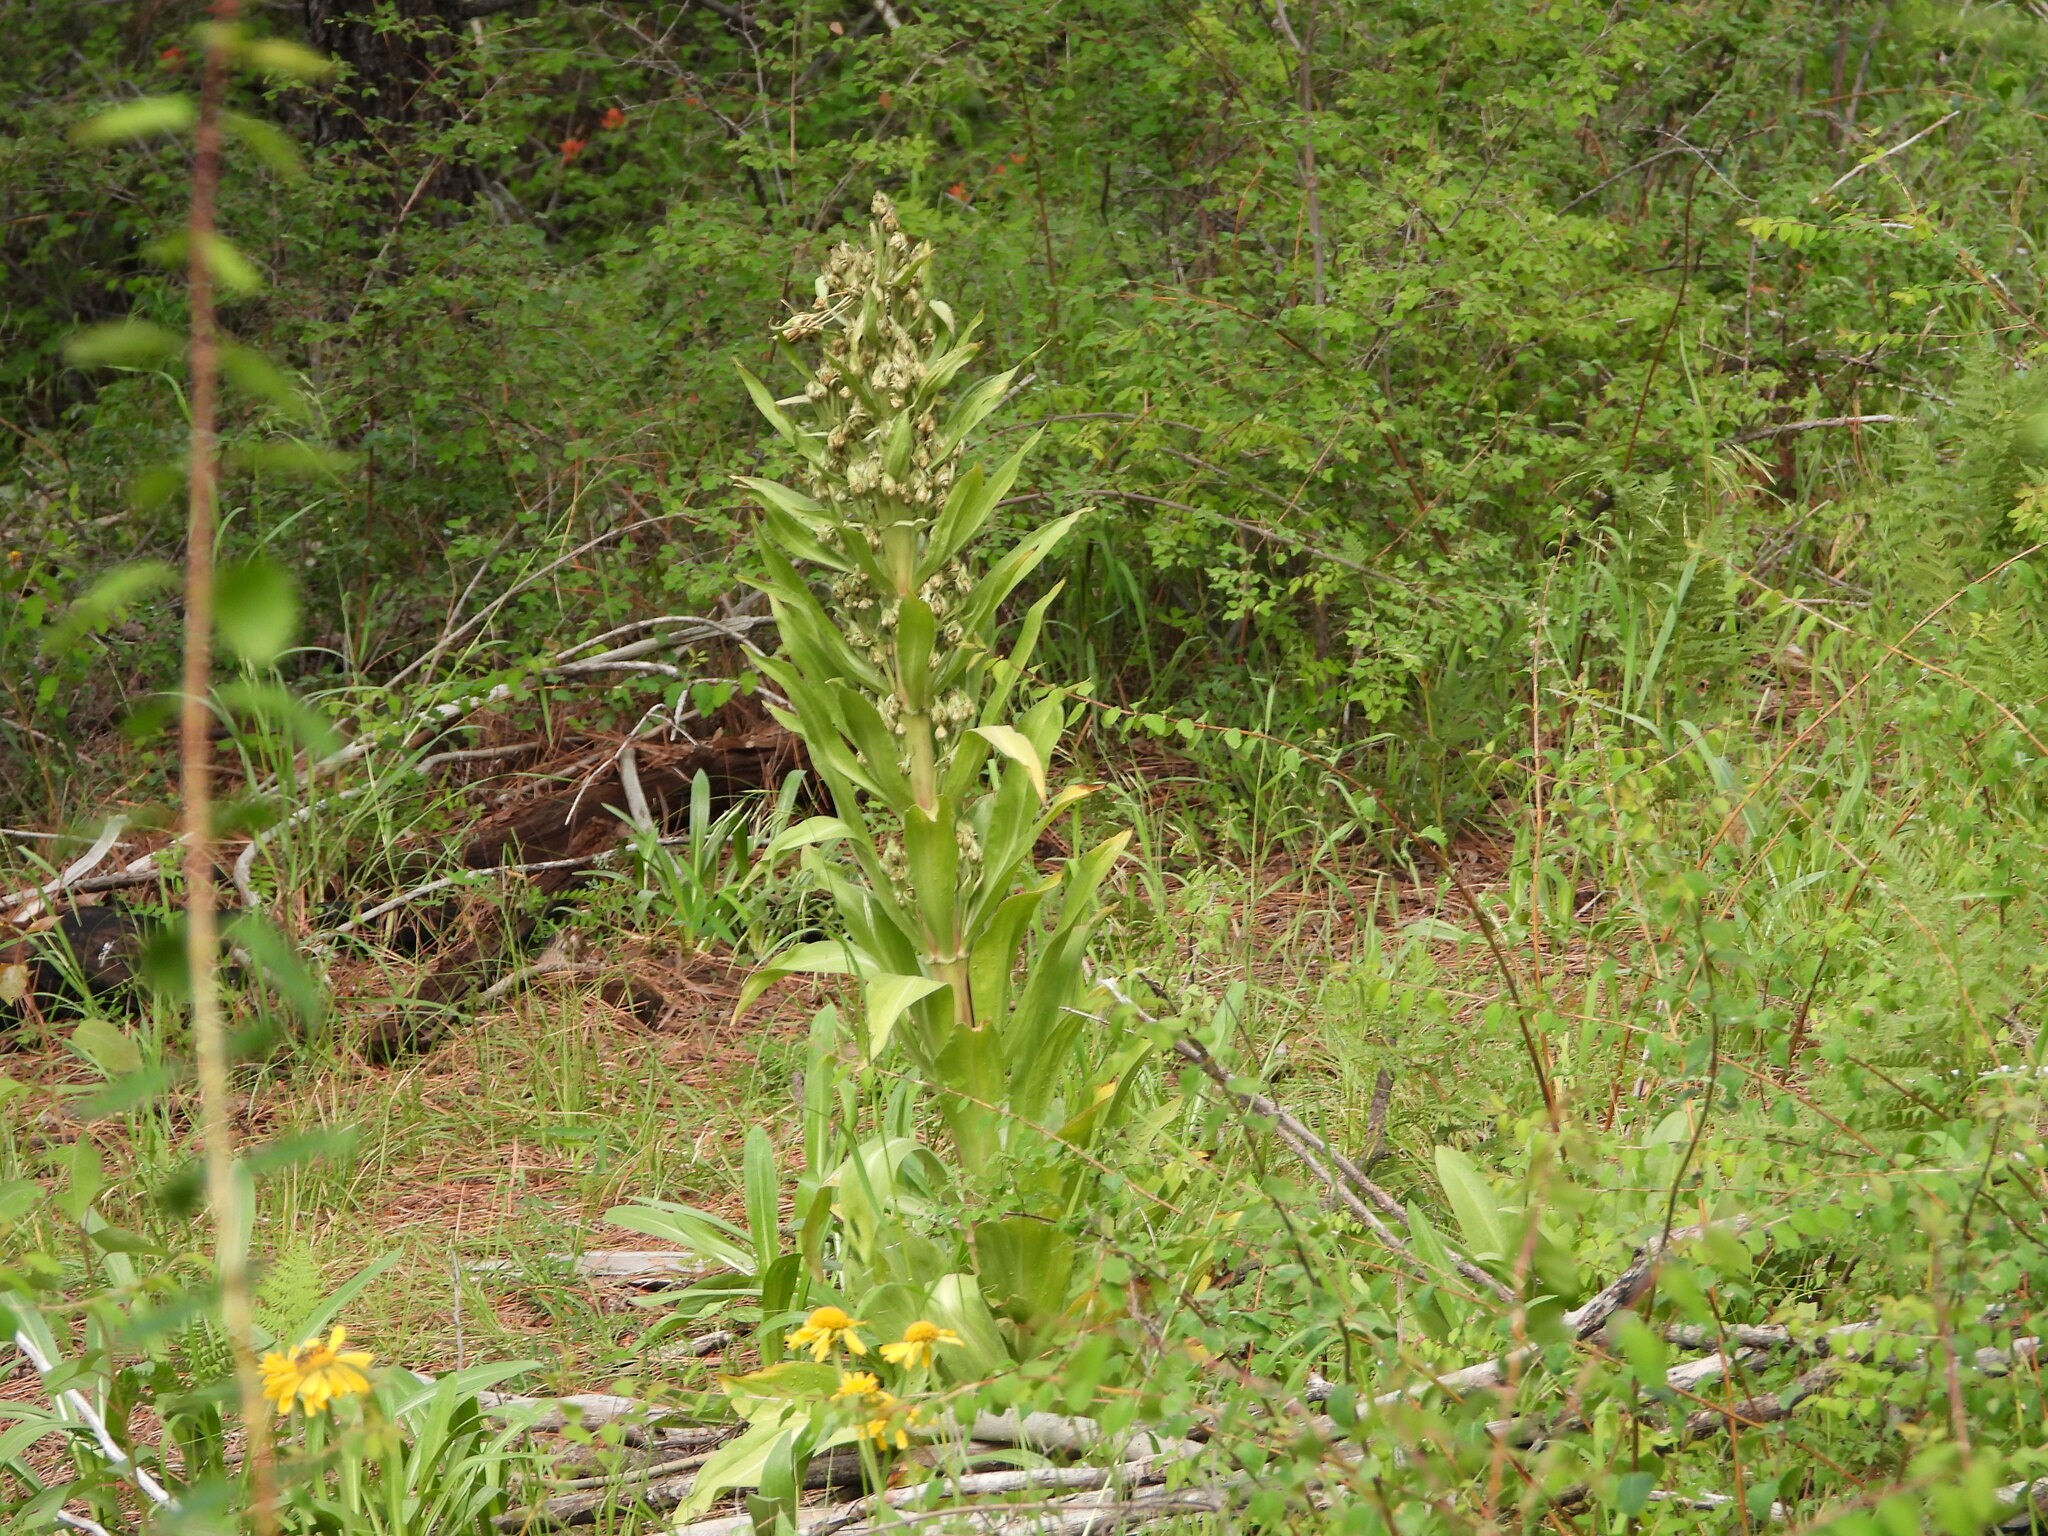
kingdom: Plantae
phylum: Tracheophyta
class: Magnoliopsida
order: Gentianales
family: Gentianaceae
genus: Frasera
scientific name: Frasera speciosa
